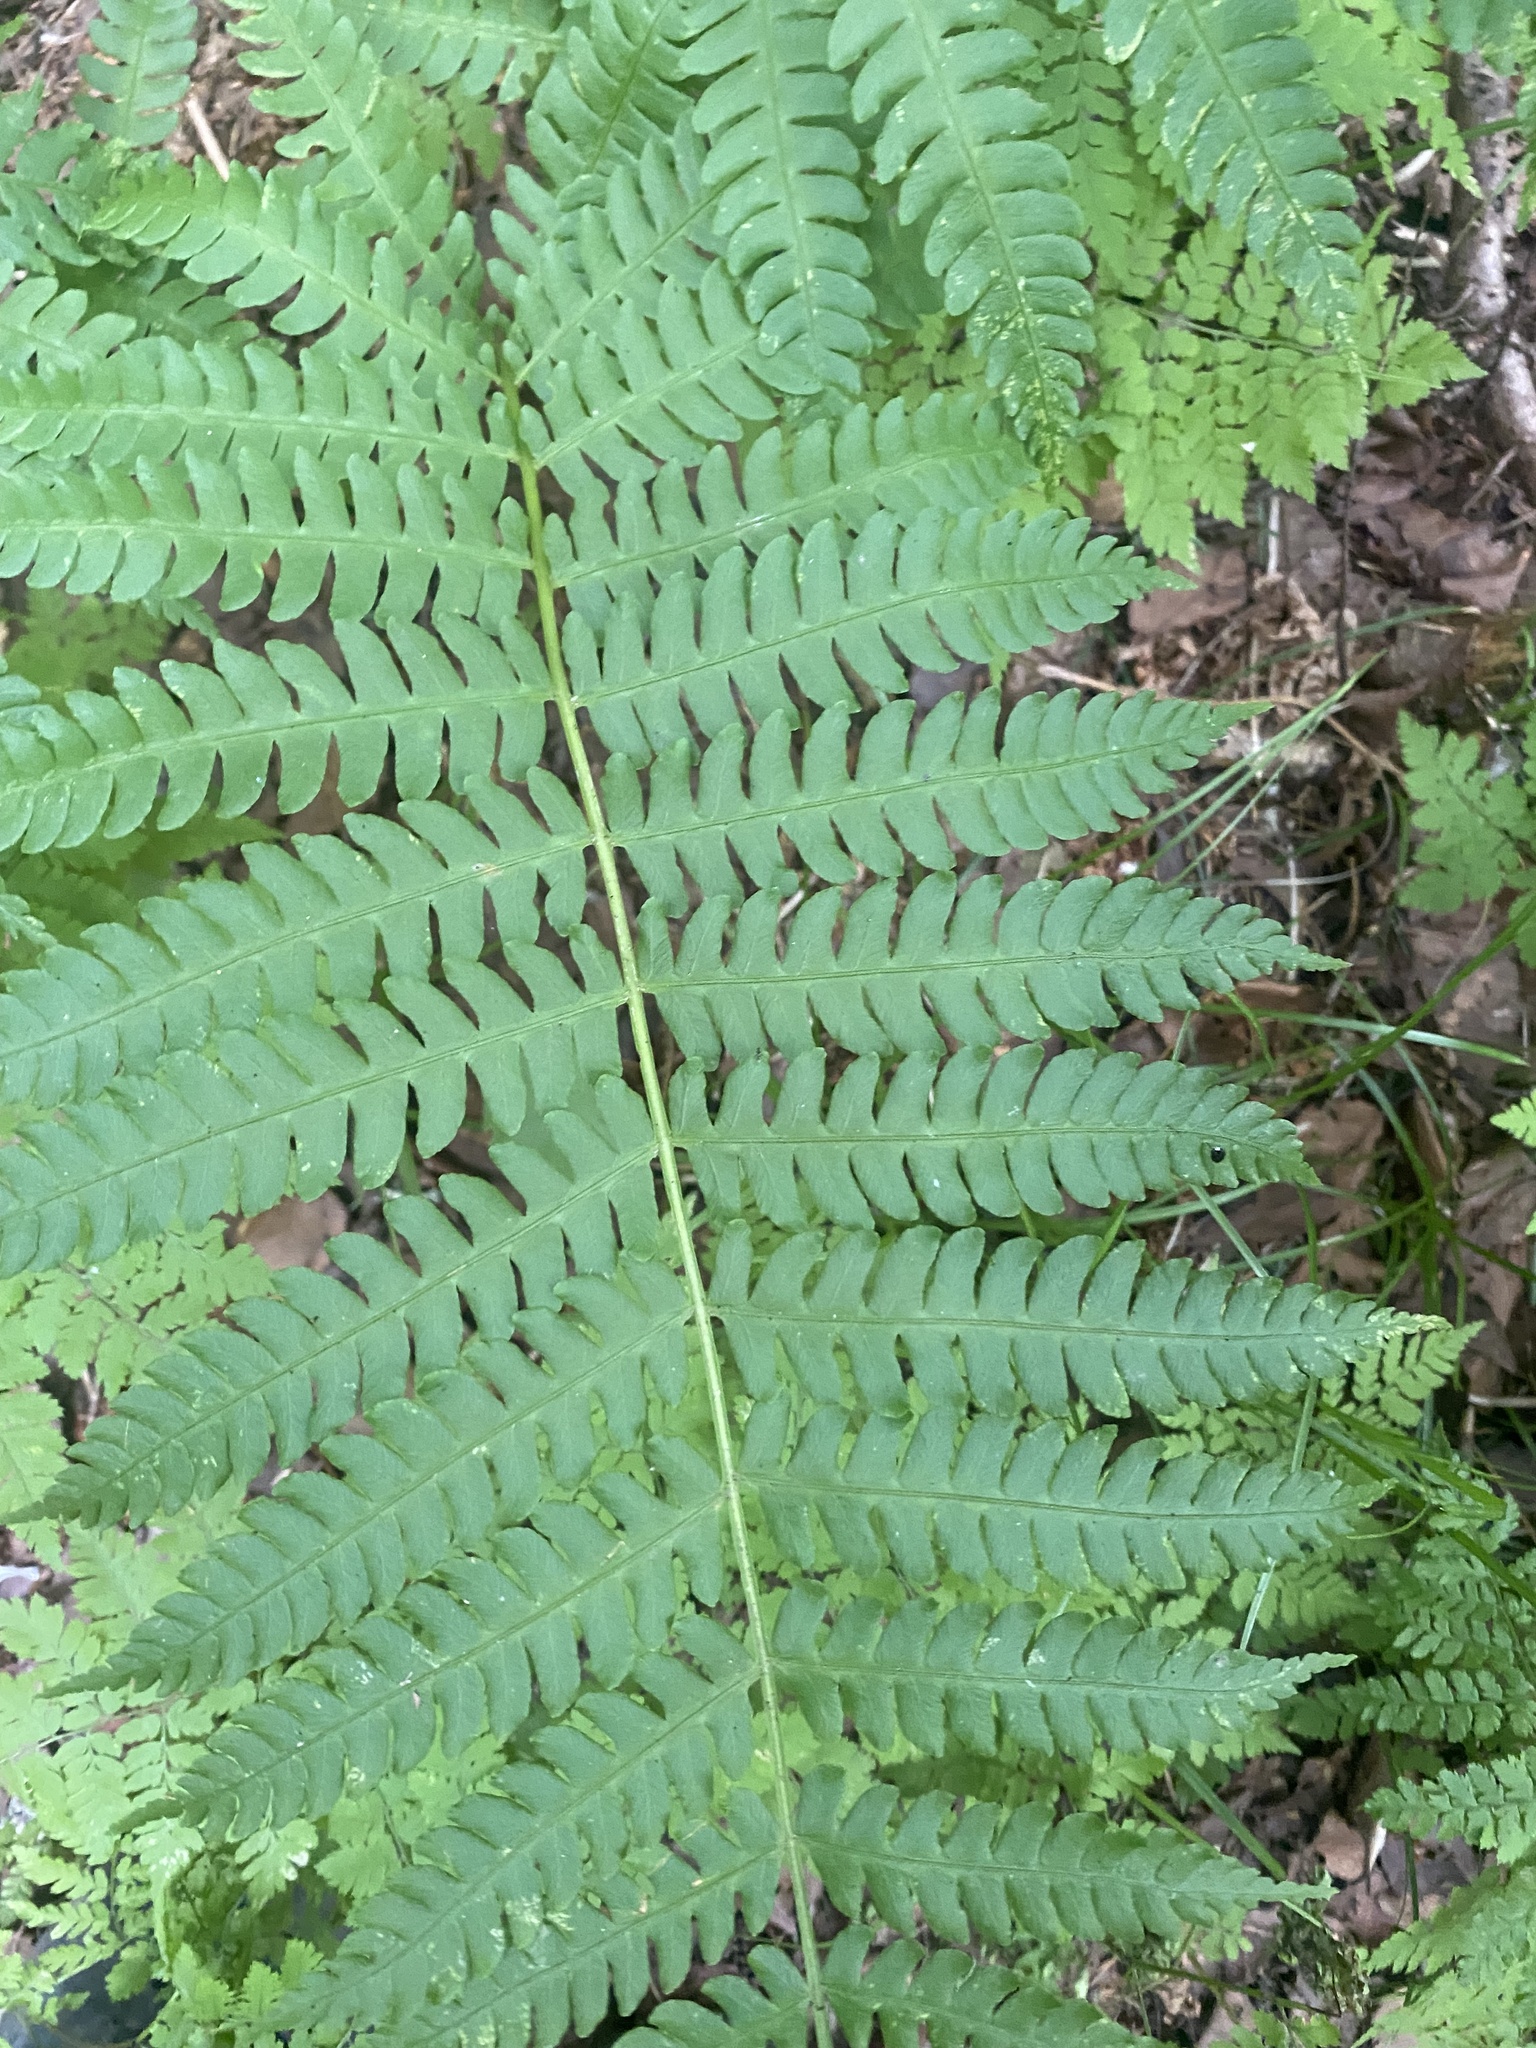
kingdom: Plantae
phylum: Tracheophyta
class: Polypodiopsida
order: Osmundales
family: Osmundaceae
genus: Osmundastrum
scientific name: Osmundastrum cinnamomeum
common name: Cinnamon fern
